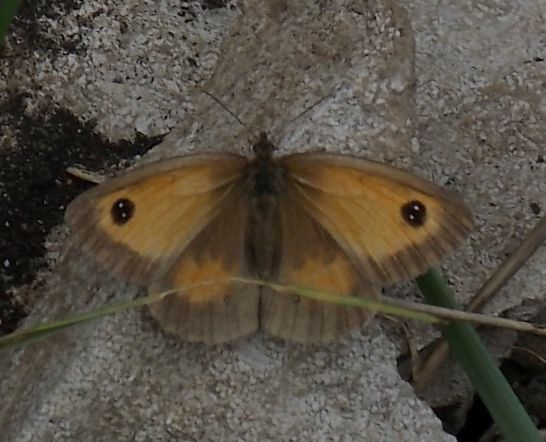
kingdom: Animalia
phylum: Arthropoda
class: Insecta
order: Lepidoptera
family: Nymphalidae
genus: Pyronia
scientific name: Pyronia tithonus
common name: Gatekeeper
